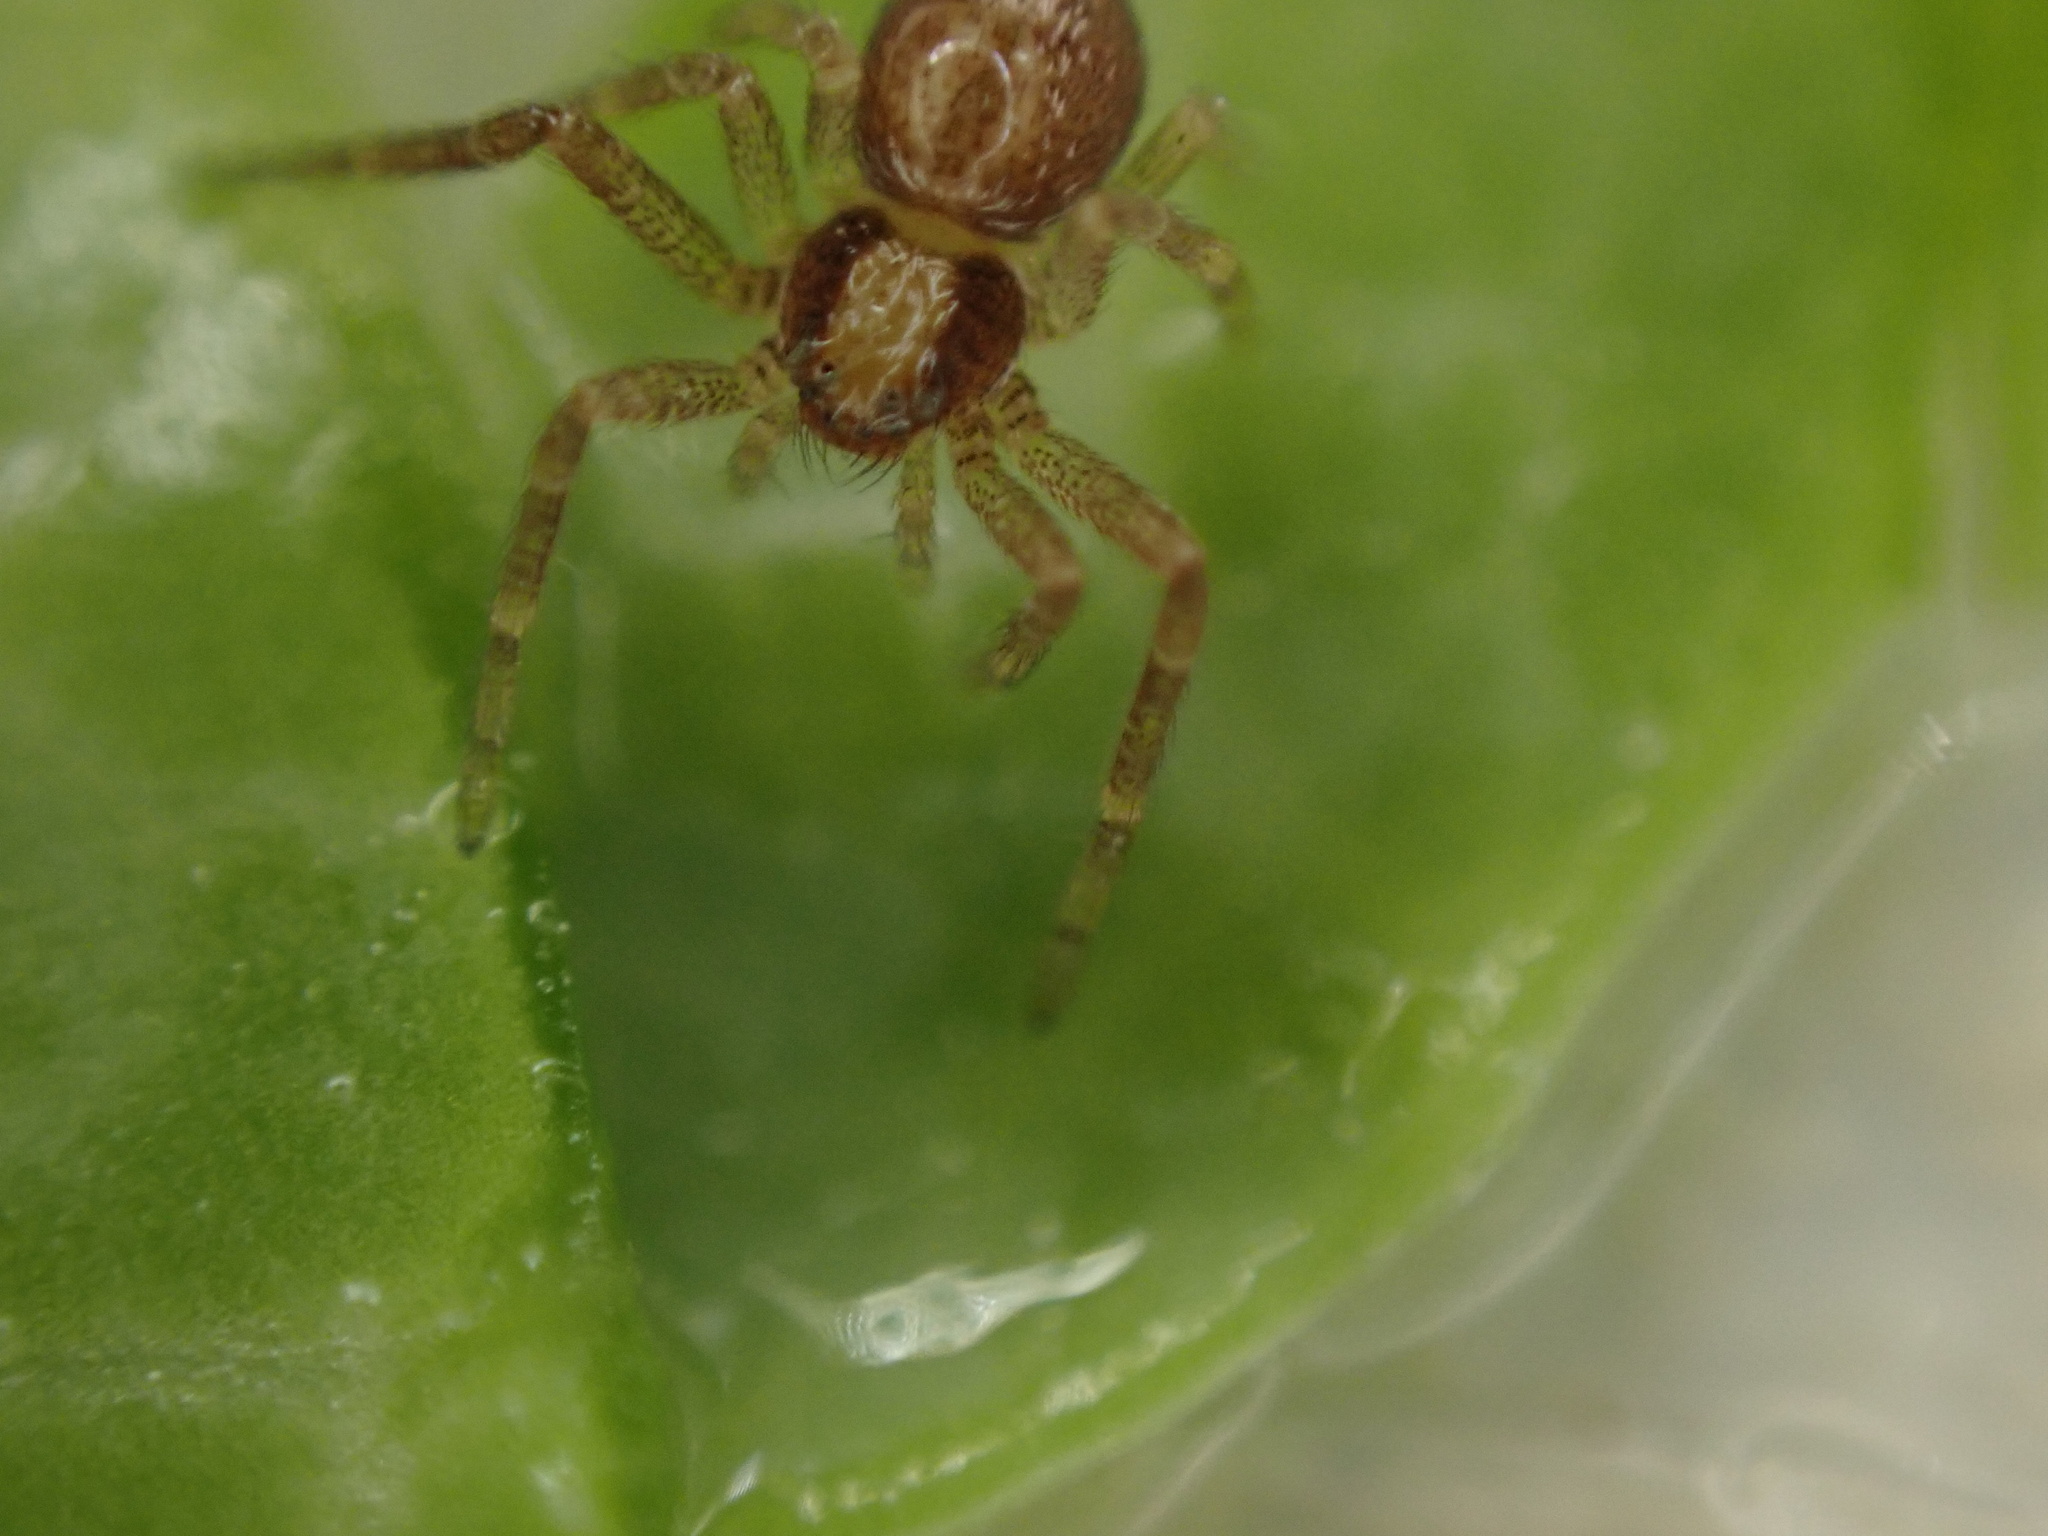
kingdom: Animalia
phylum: Arthropoda
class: Arachnida
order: Araneae
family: Philodromidae
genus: Philodromus
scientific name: Philodromus rufus
